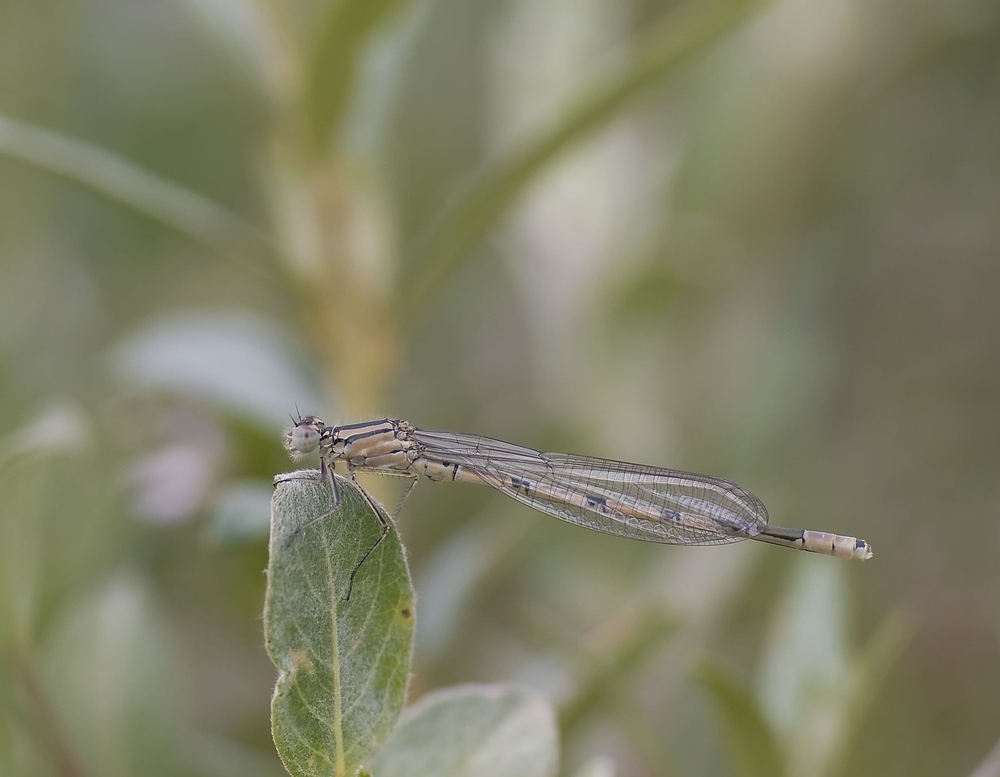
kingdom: Animalia
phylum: Arthropoda
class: Insecta
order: Odonata
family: Coenagrionidae
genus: Enallagma
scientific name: Enallagma cyathigerum
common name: Common blue damselfly
